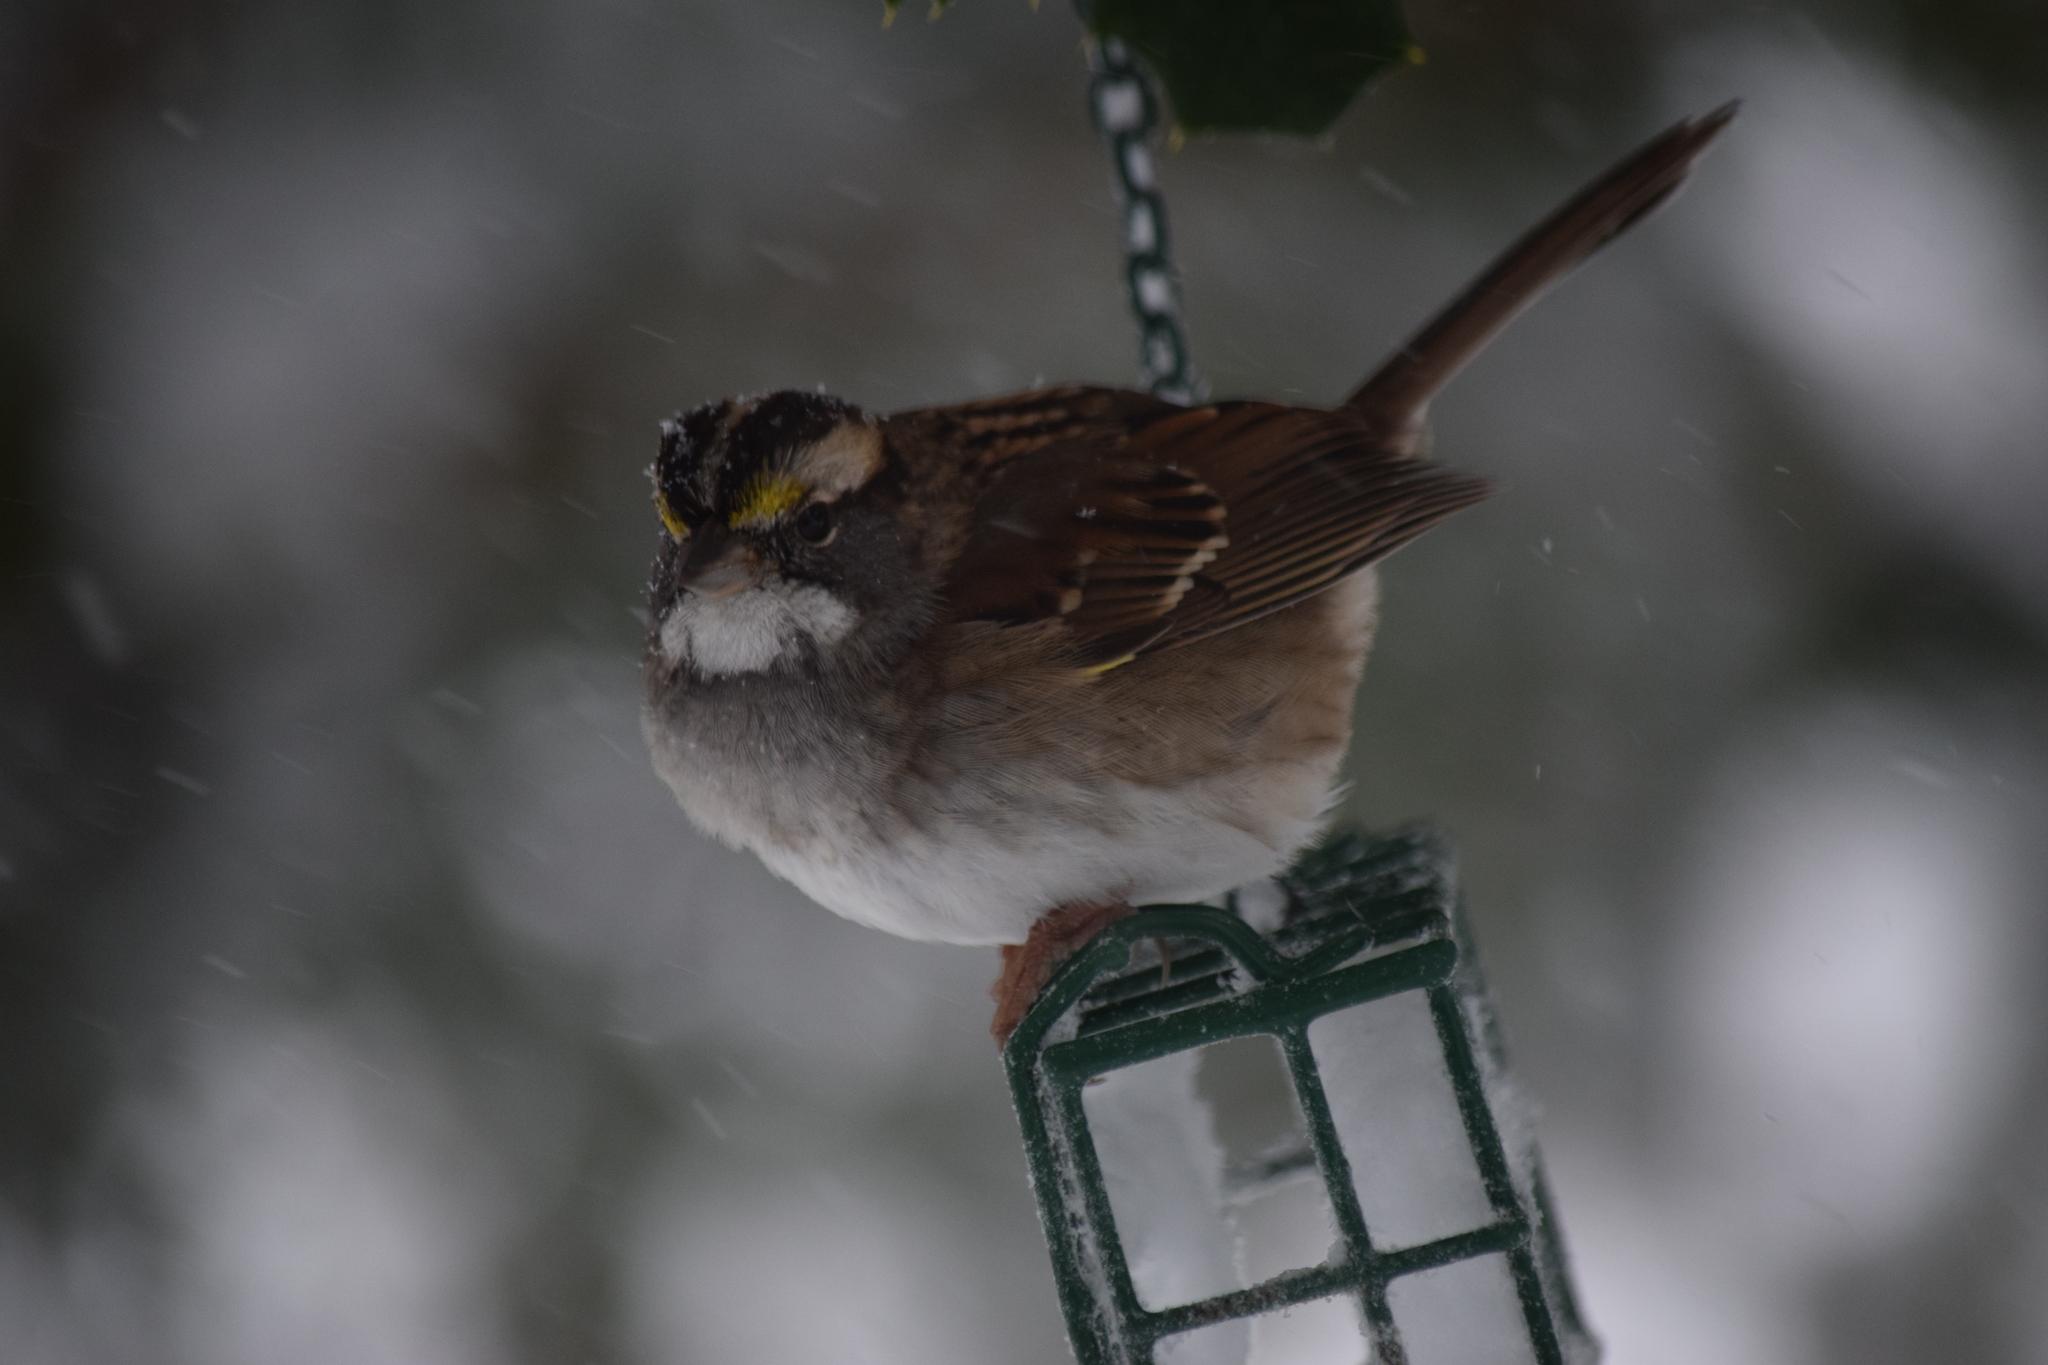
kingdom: Animalia
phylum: Chordata
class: Aves
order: Passeriformes
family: Passerellidae
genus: Zonotrichia
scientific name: Zonotrichia albicollis
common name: White-throated sparrow
